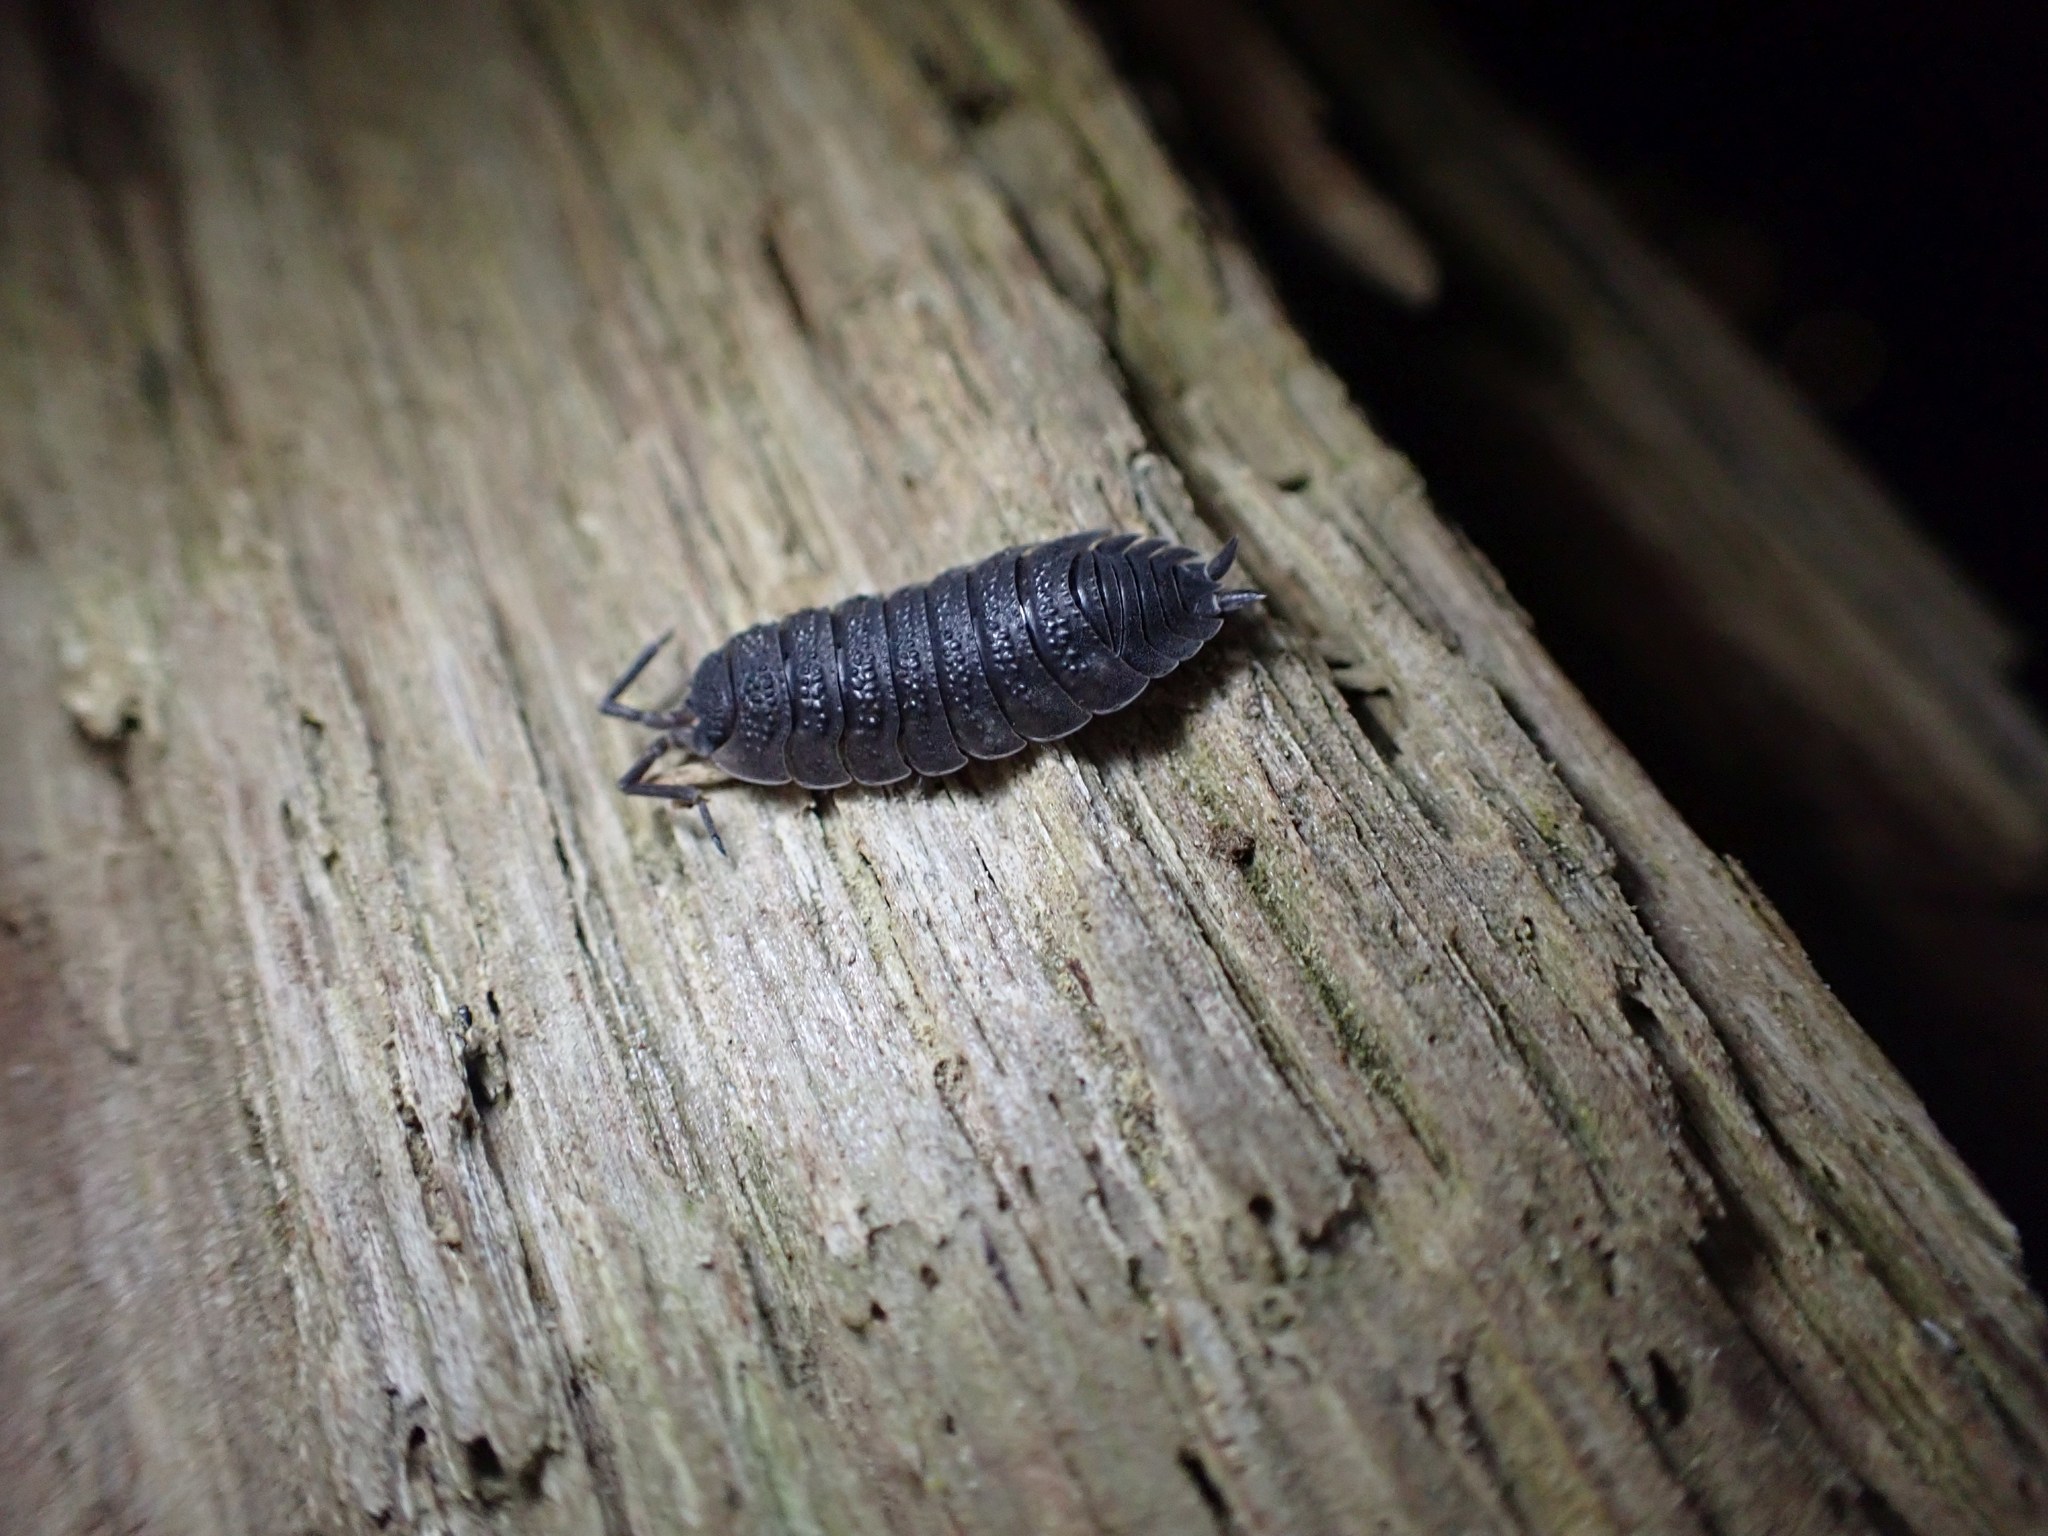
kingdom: Animalia
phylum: Arthropoda
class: Malacostraca
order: Isopoda
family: Porcellionidae
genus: Porcellio
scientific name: Porcellio scaber
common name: Common rough woodlouse
